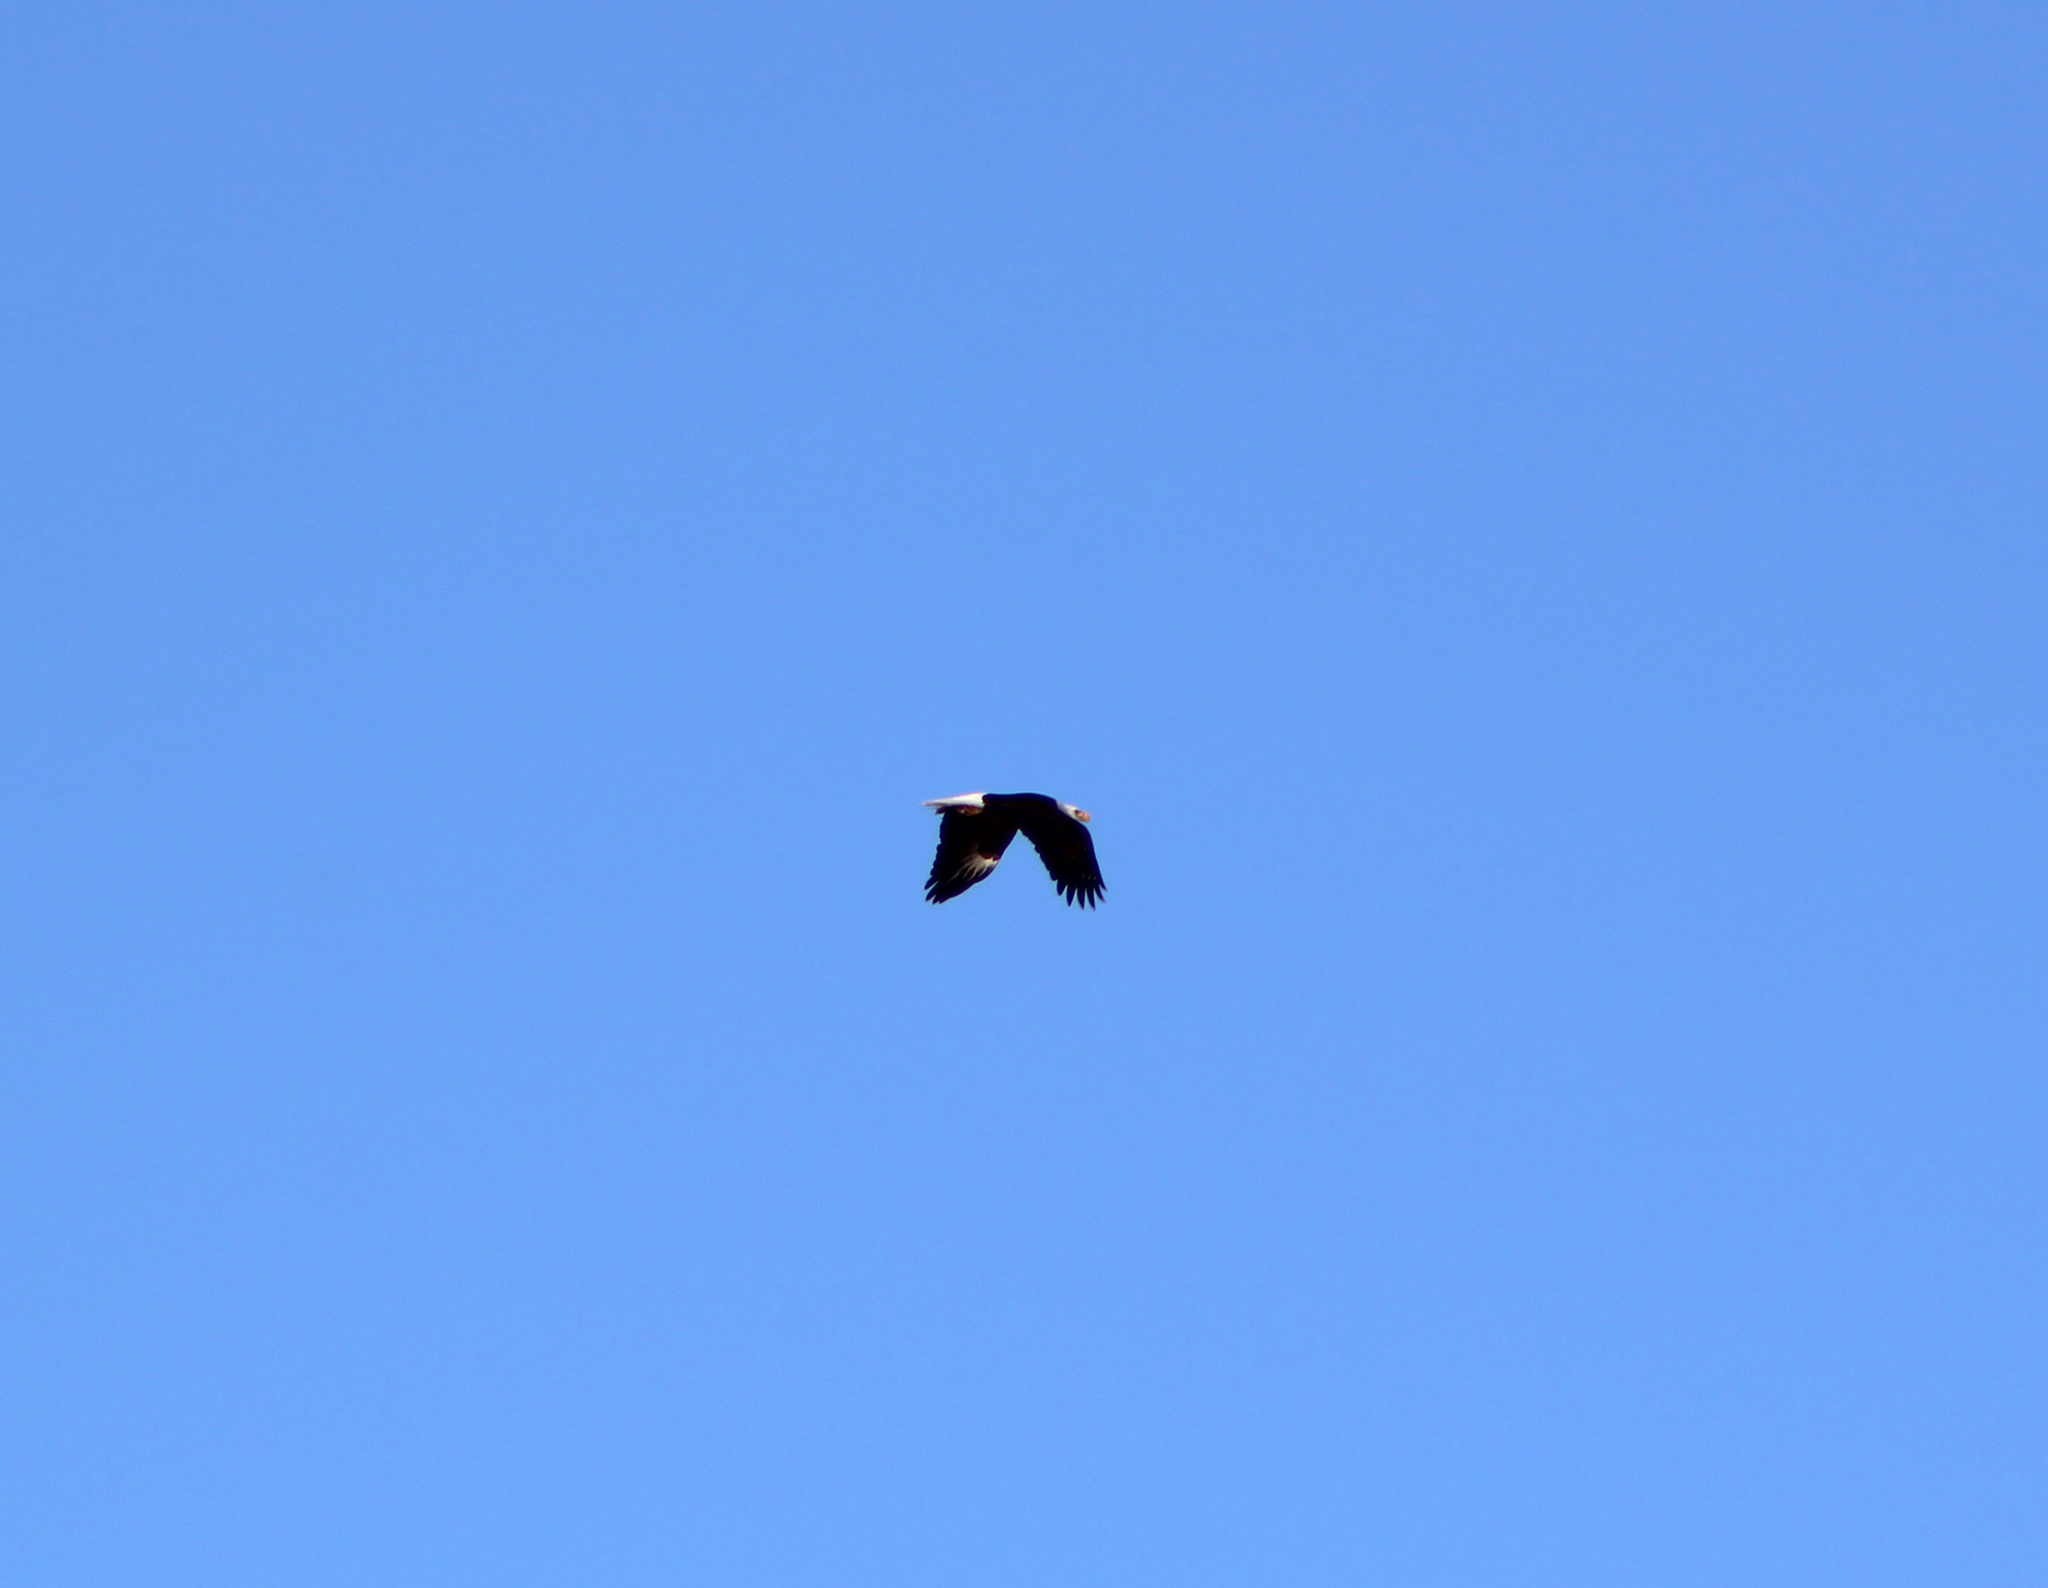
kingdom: Animalia
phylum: Chordata
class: Aves
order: Accipitriformes
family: Accipitridae
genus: Haliaeetus
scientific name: Haliaeetus leucocephalus
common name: Bald eagle
